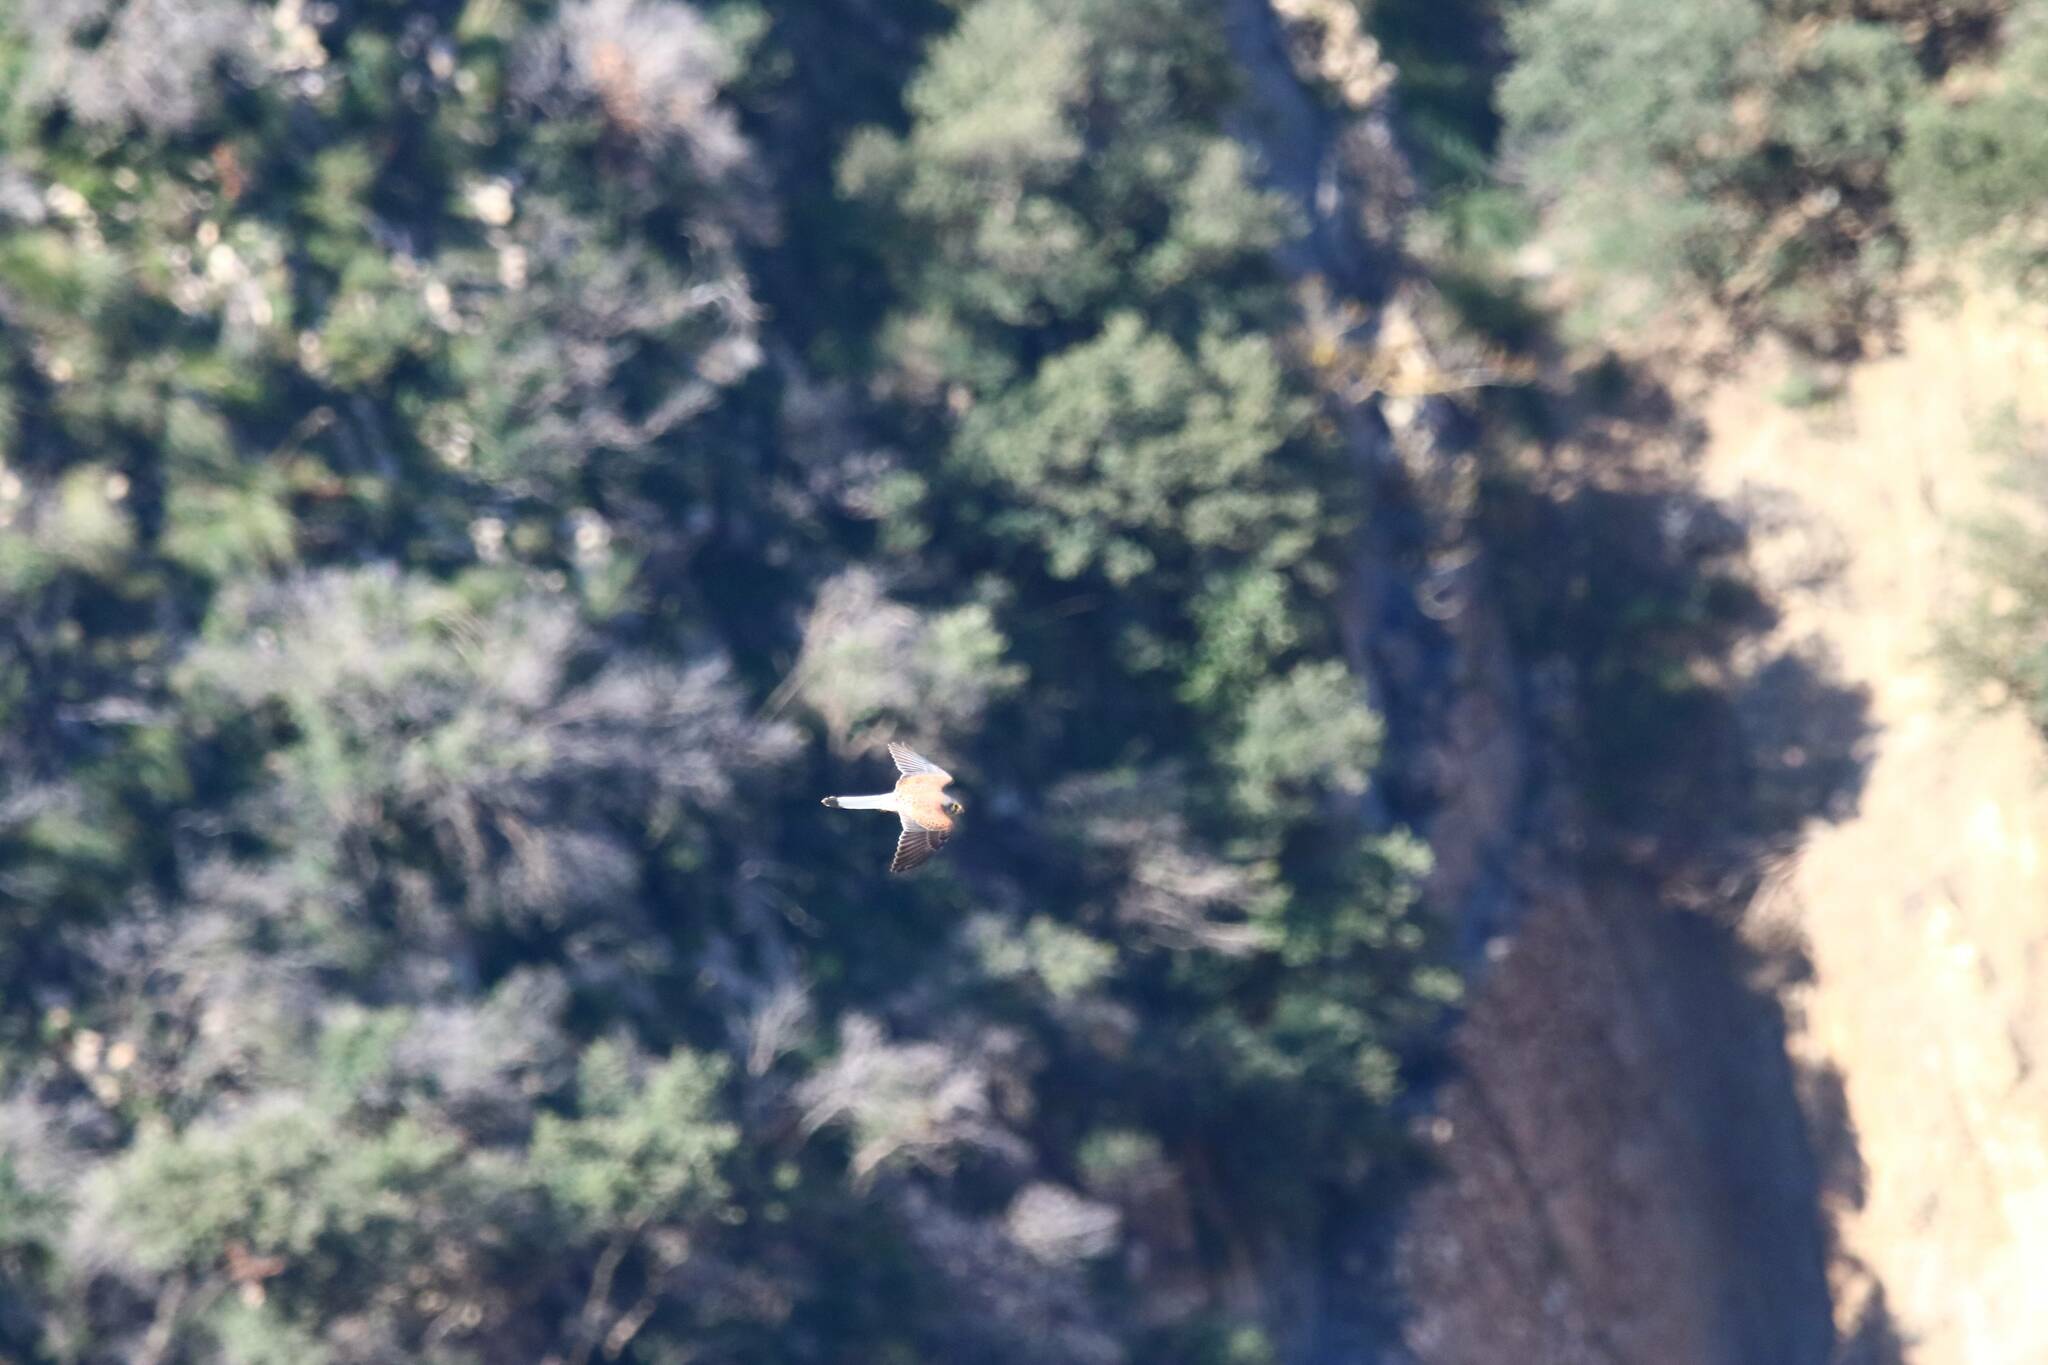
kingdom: Animalia
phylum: Chordata
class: Aves
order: Falconiformes
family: Falconidae
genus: Falco
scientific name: Falco naumanni
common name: Lesser kestrel
